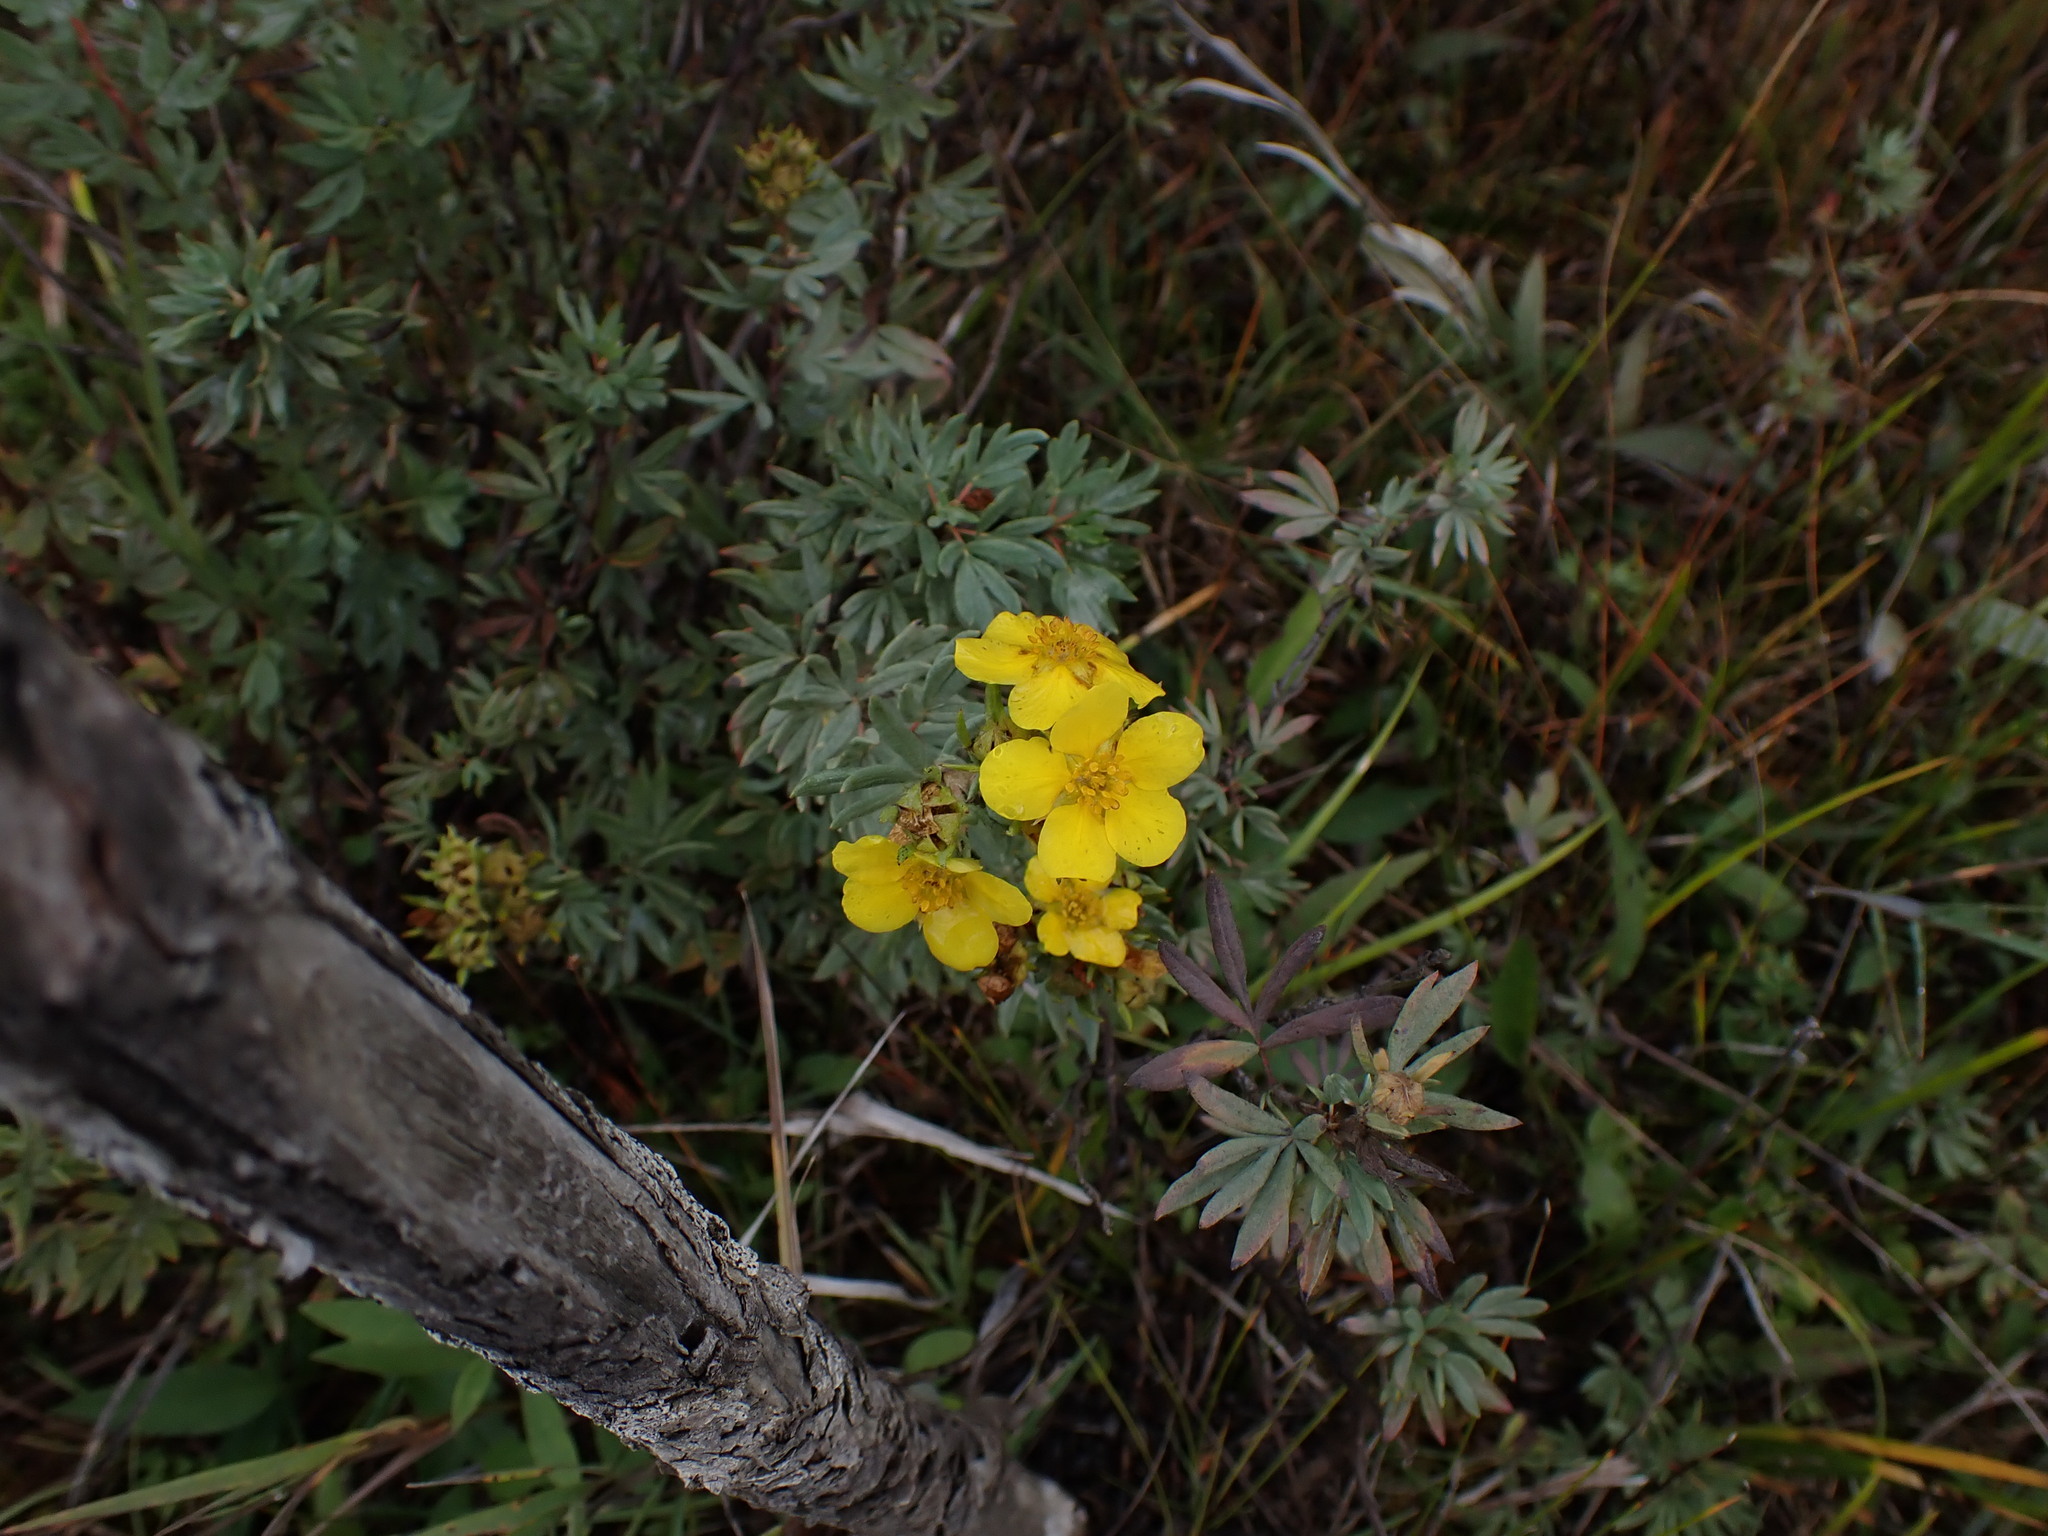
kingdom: Plantae
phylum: Tracheophyta
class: Magnoliopsida
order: Rosales
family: Rosaceae
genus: Dasiphora
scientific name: Dasiphora fruticosa
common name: Shrubby cinquefoil
